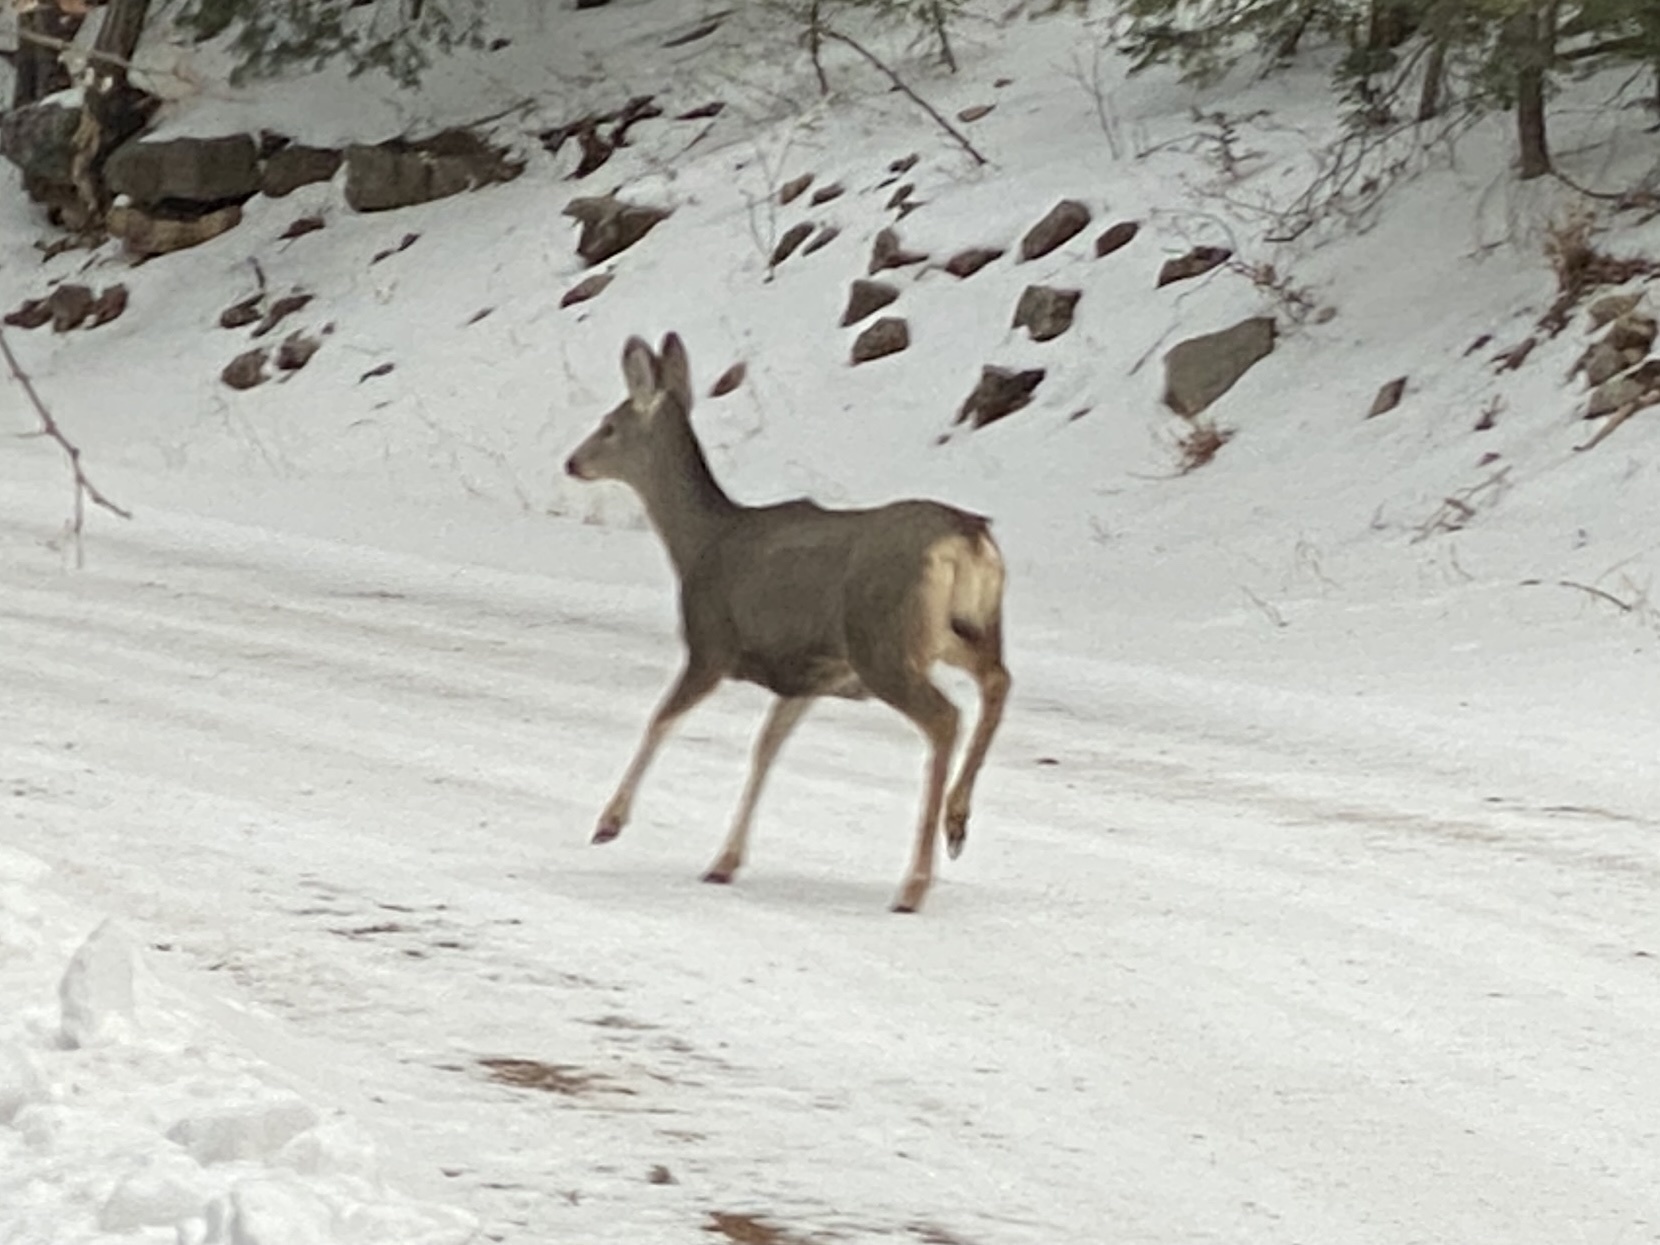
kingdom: Animalia
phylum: Chordata
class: Mammalia
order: Artiodactyla
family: Cervidae
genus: Odocoileus
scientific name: Odocoileus hemionus
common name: Mule deer
